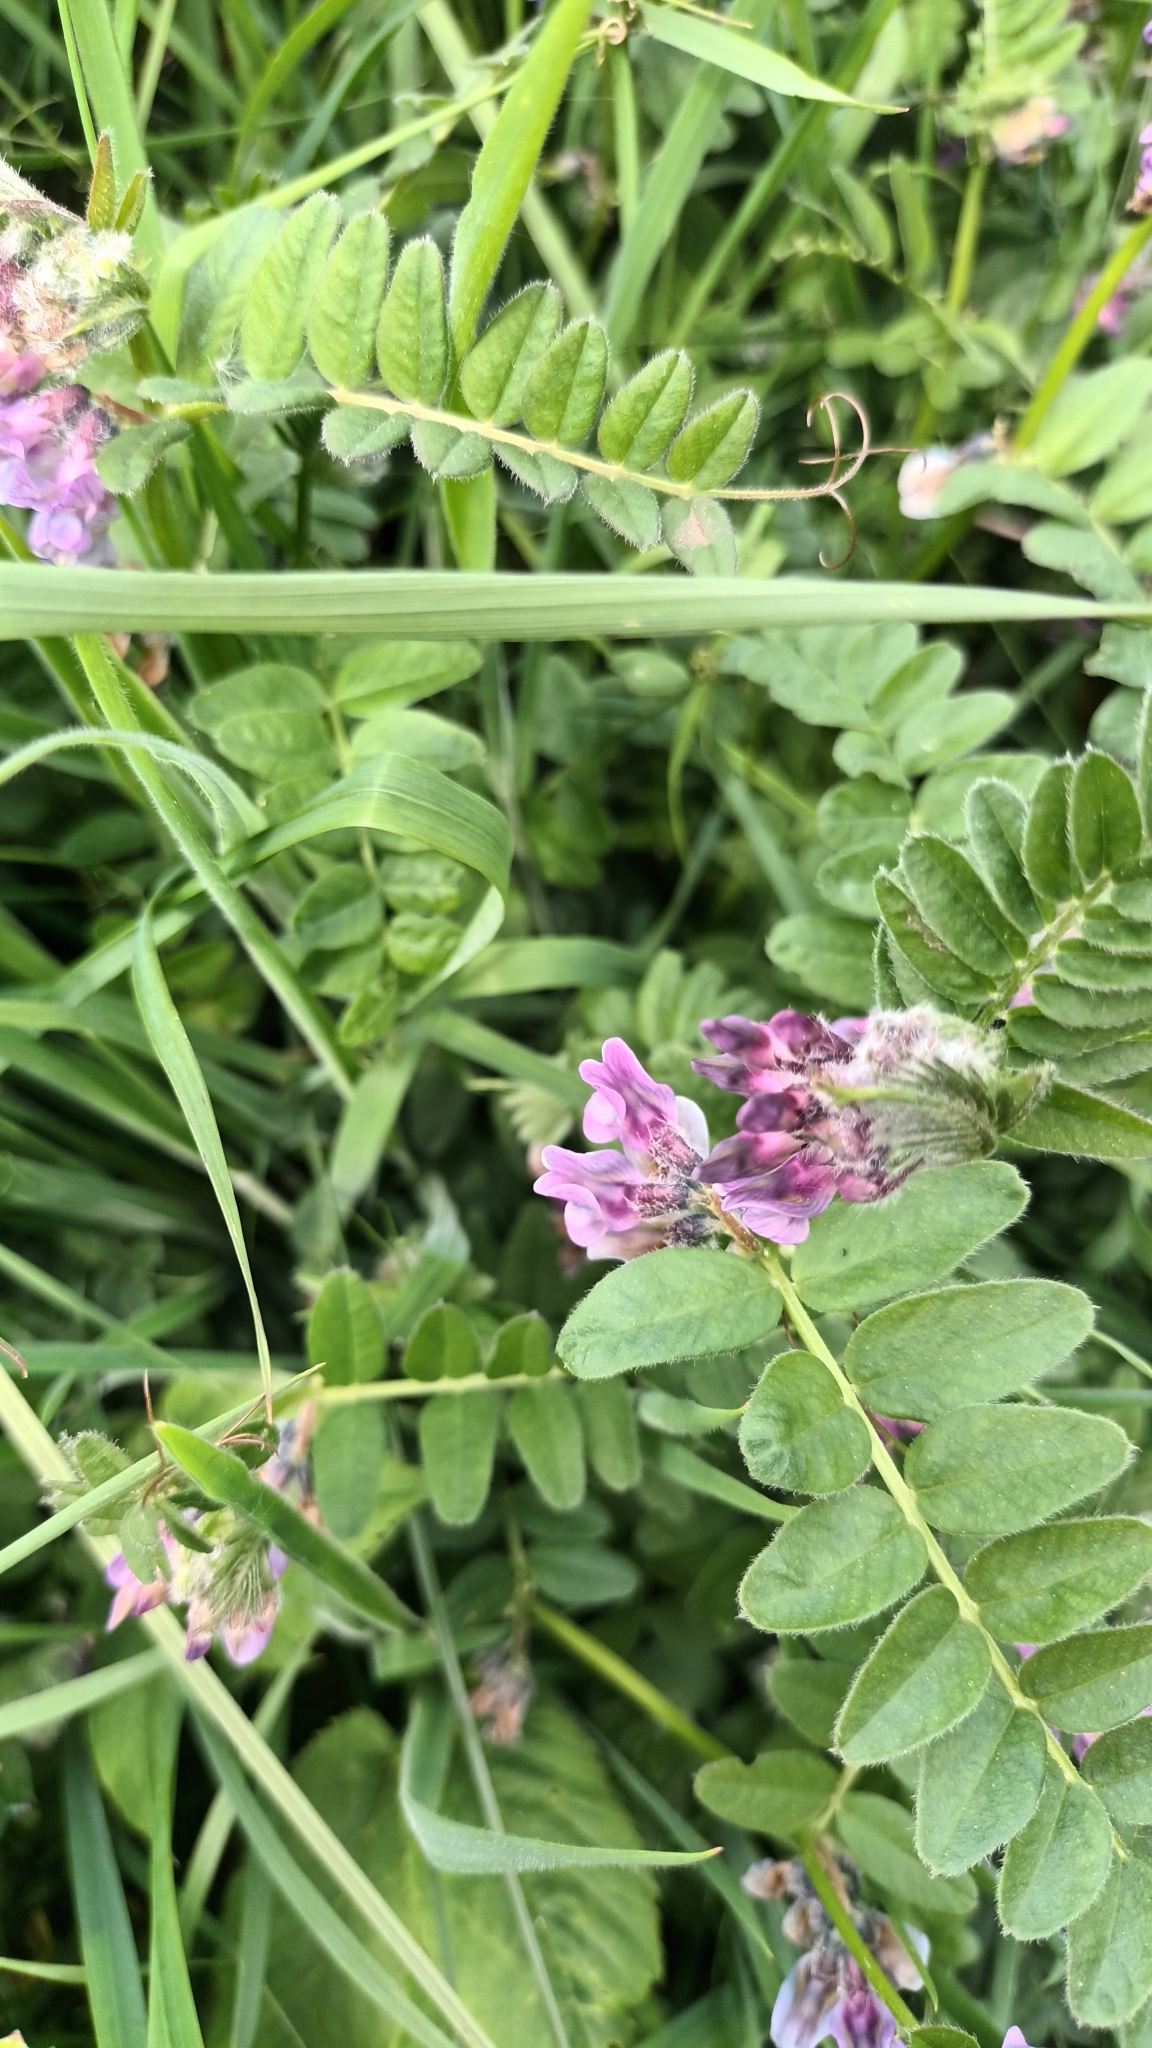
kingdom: Plantae
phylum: Tracheophyta
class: Magnoliopsida
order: Fabales
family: Fabaceae
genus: Vicia
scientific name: Vicia sepium
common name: Bush vetch
